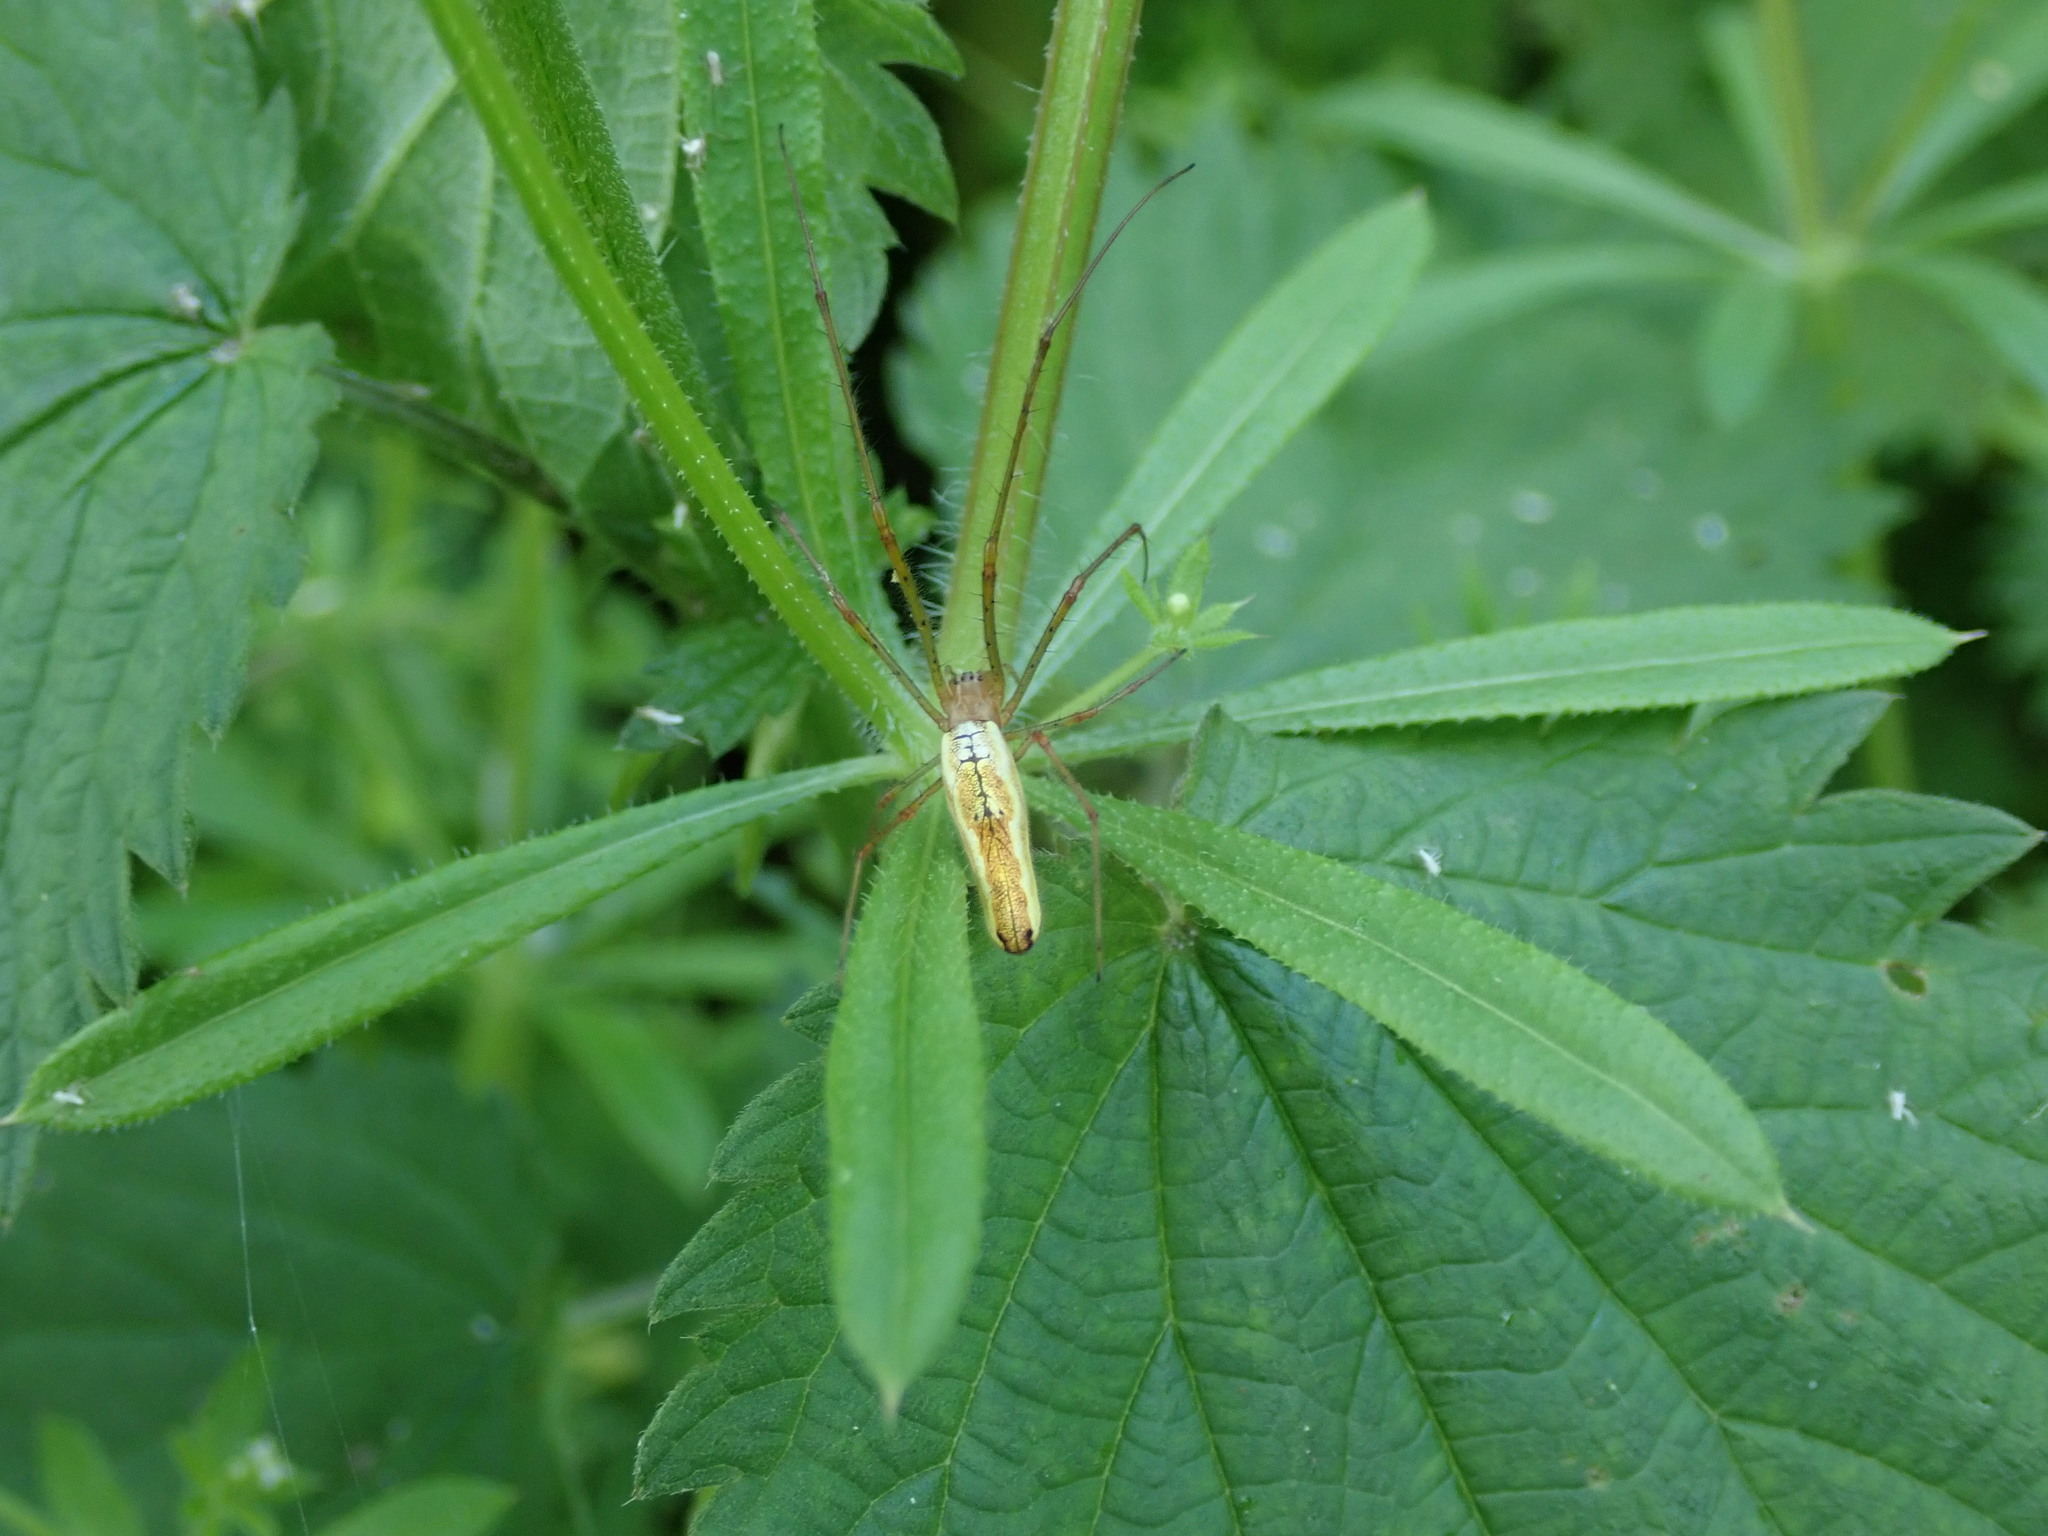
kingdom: Animalia
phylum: Arthropoda
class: Arachnida
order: Araneae
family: Tetragnathidae
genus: Tetragnatha
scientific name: Tetragnatha
